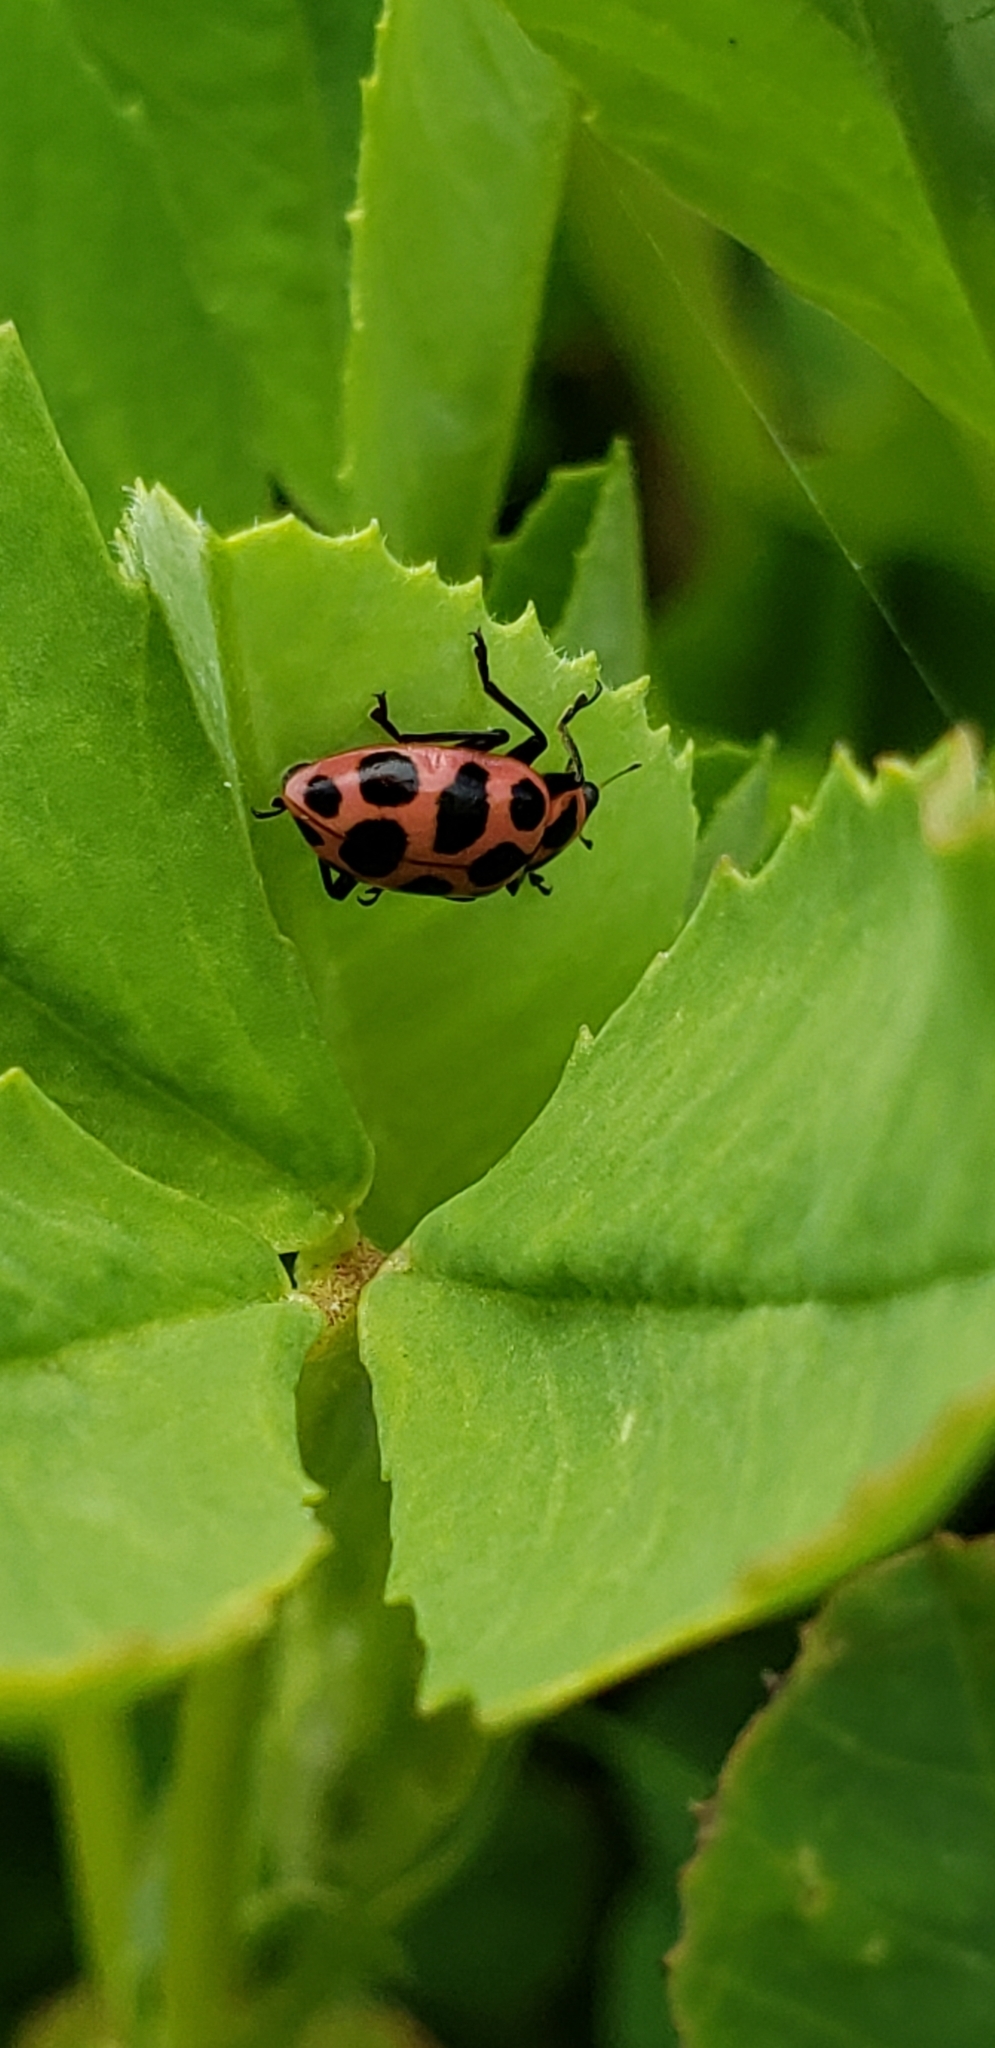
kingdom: Animalia
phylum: Arthropoda
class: Insecta
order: Coleoptera
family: Coccinellidae
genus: Coleomegilla
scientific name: Coleomegilla maculata
